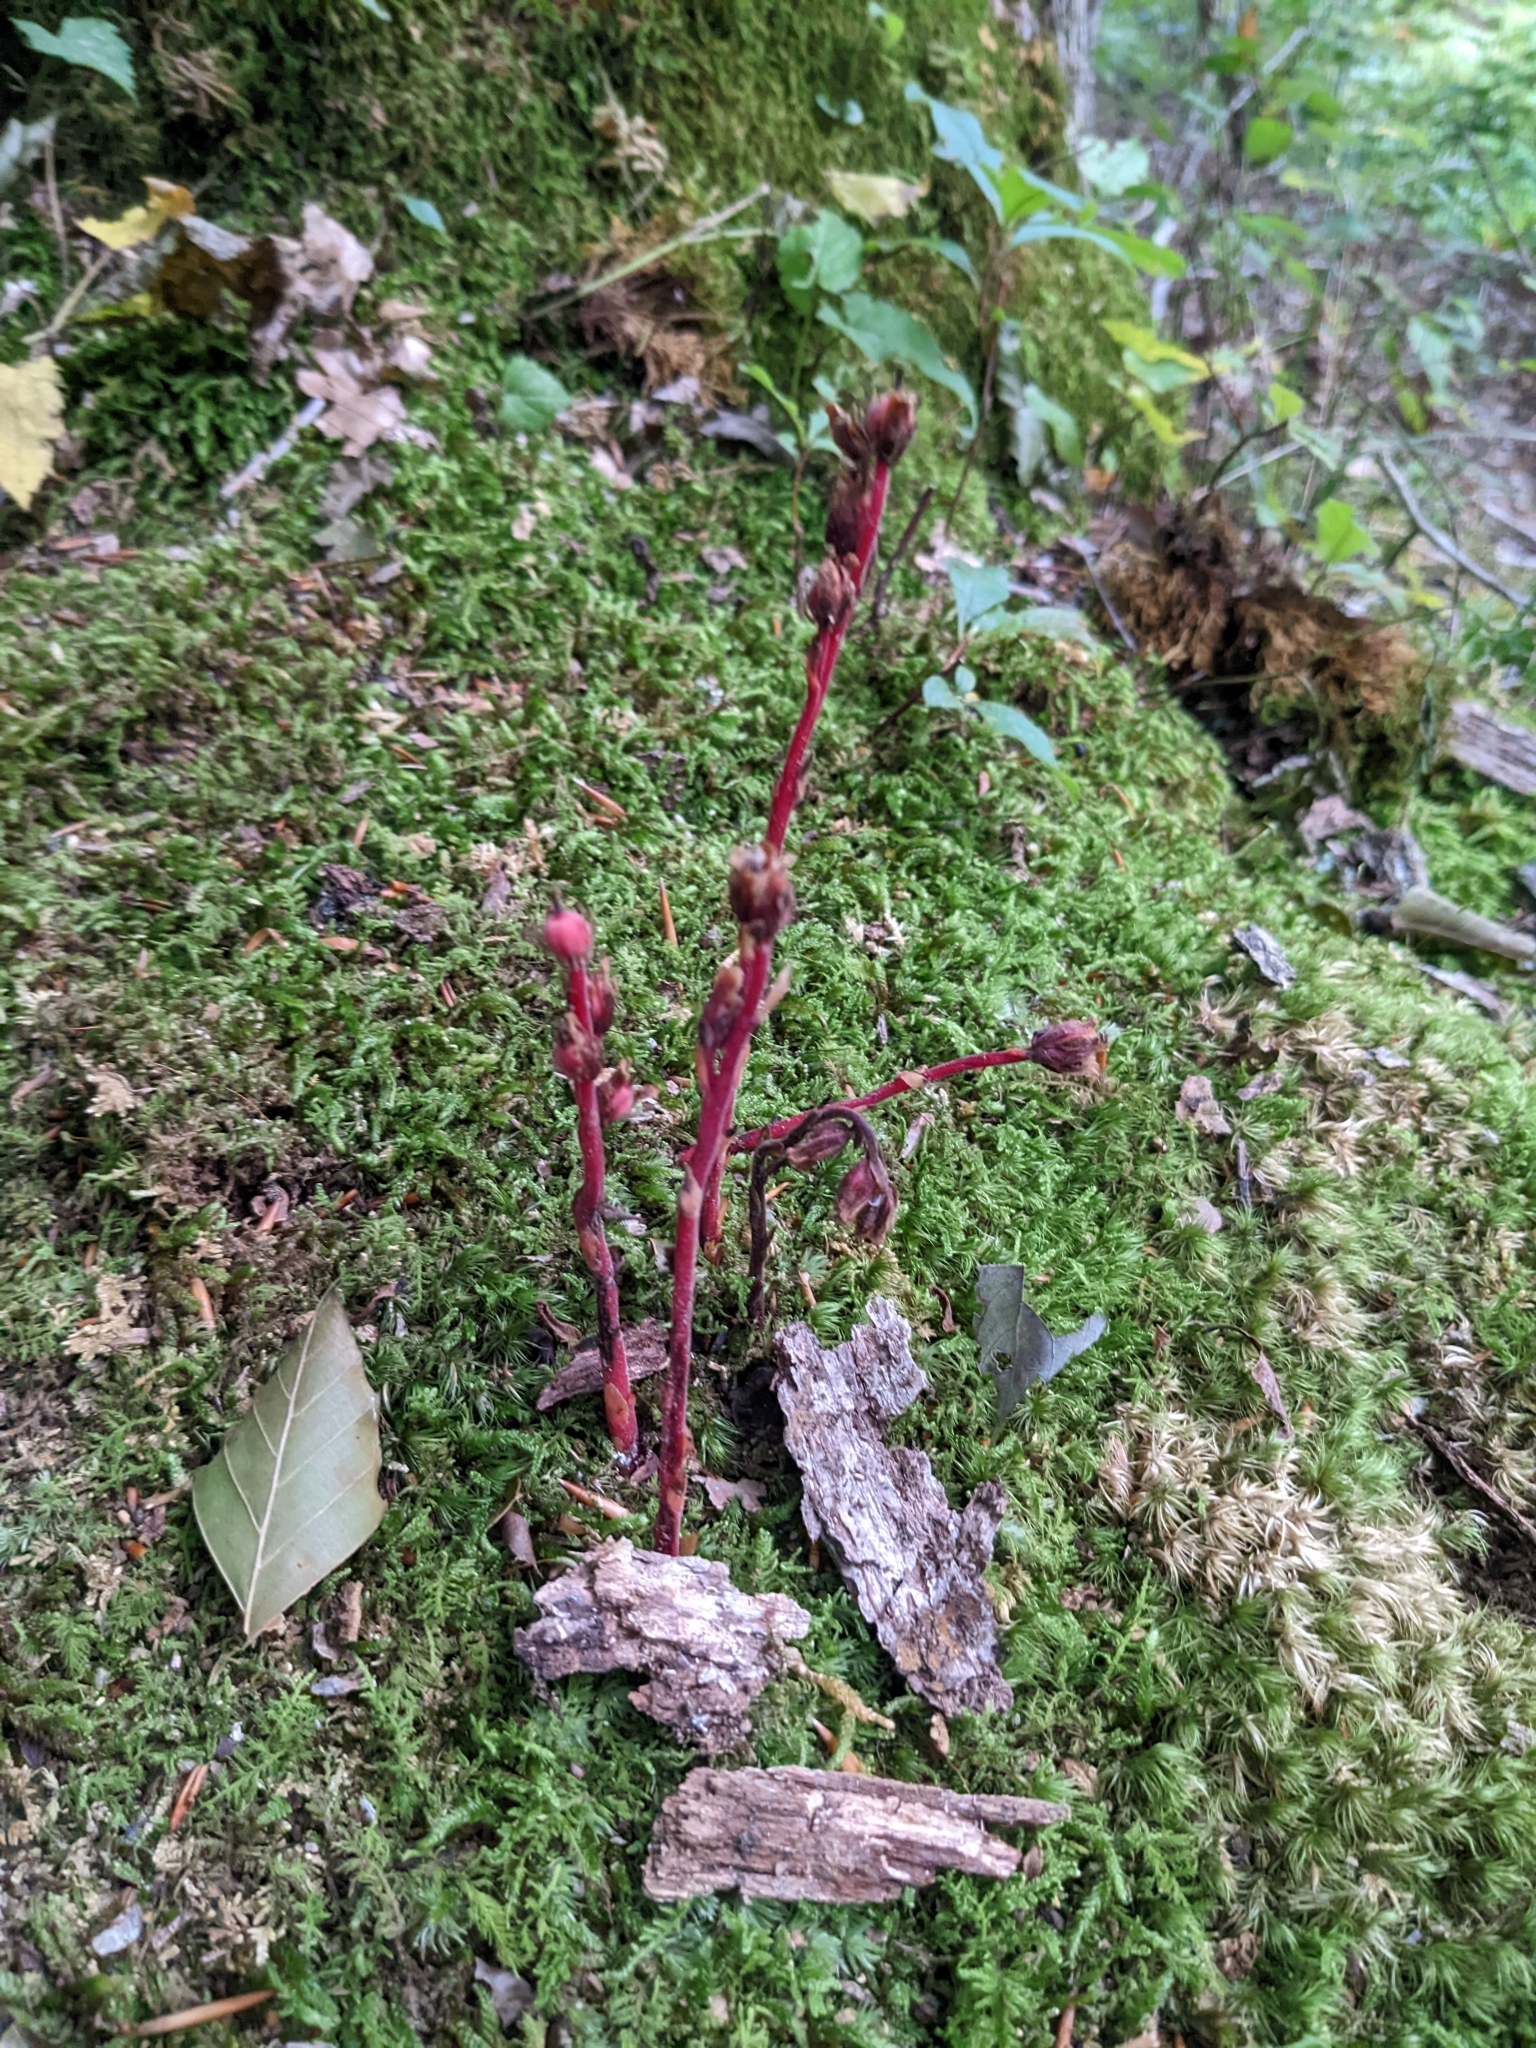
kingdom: Plantae
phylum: Tracheophyta
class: Magnoliopsida
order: Ericales
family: Ericaceae
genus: Hypopitys
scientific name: Hypopitys monotropa
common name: Yellow bird's-nest
